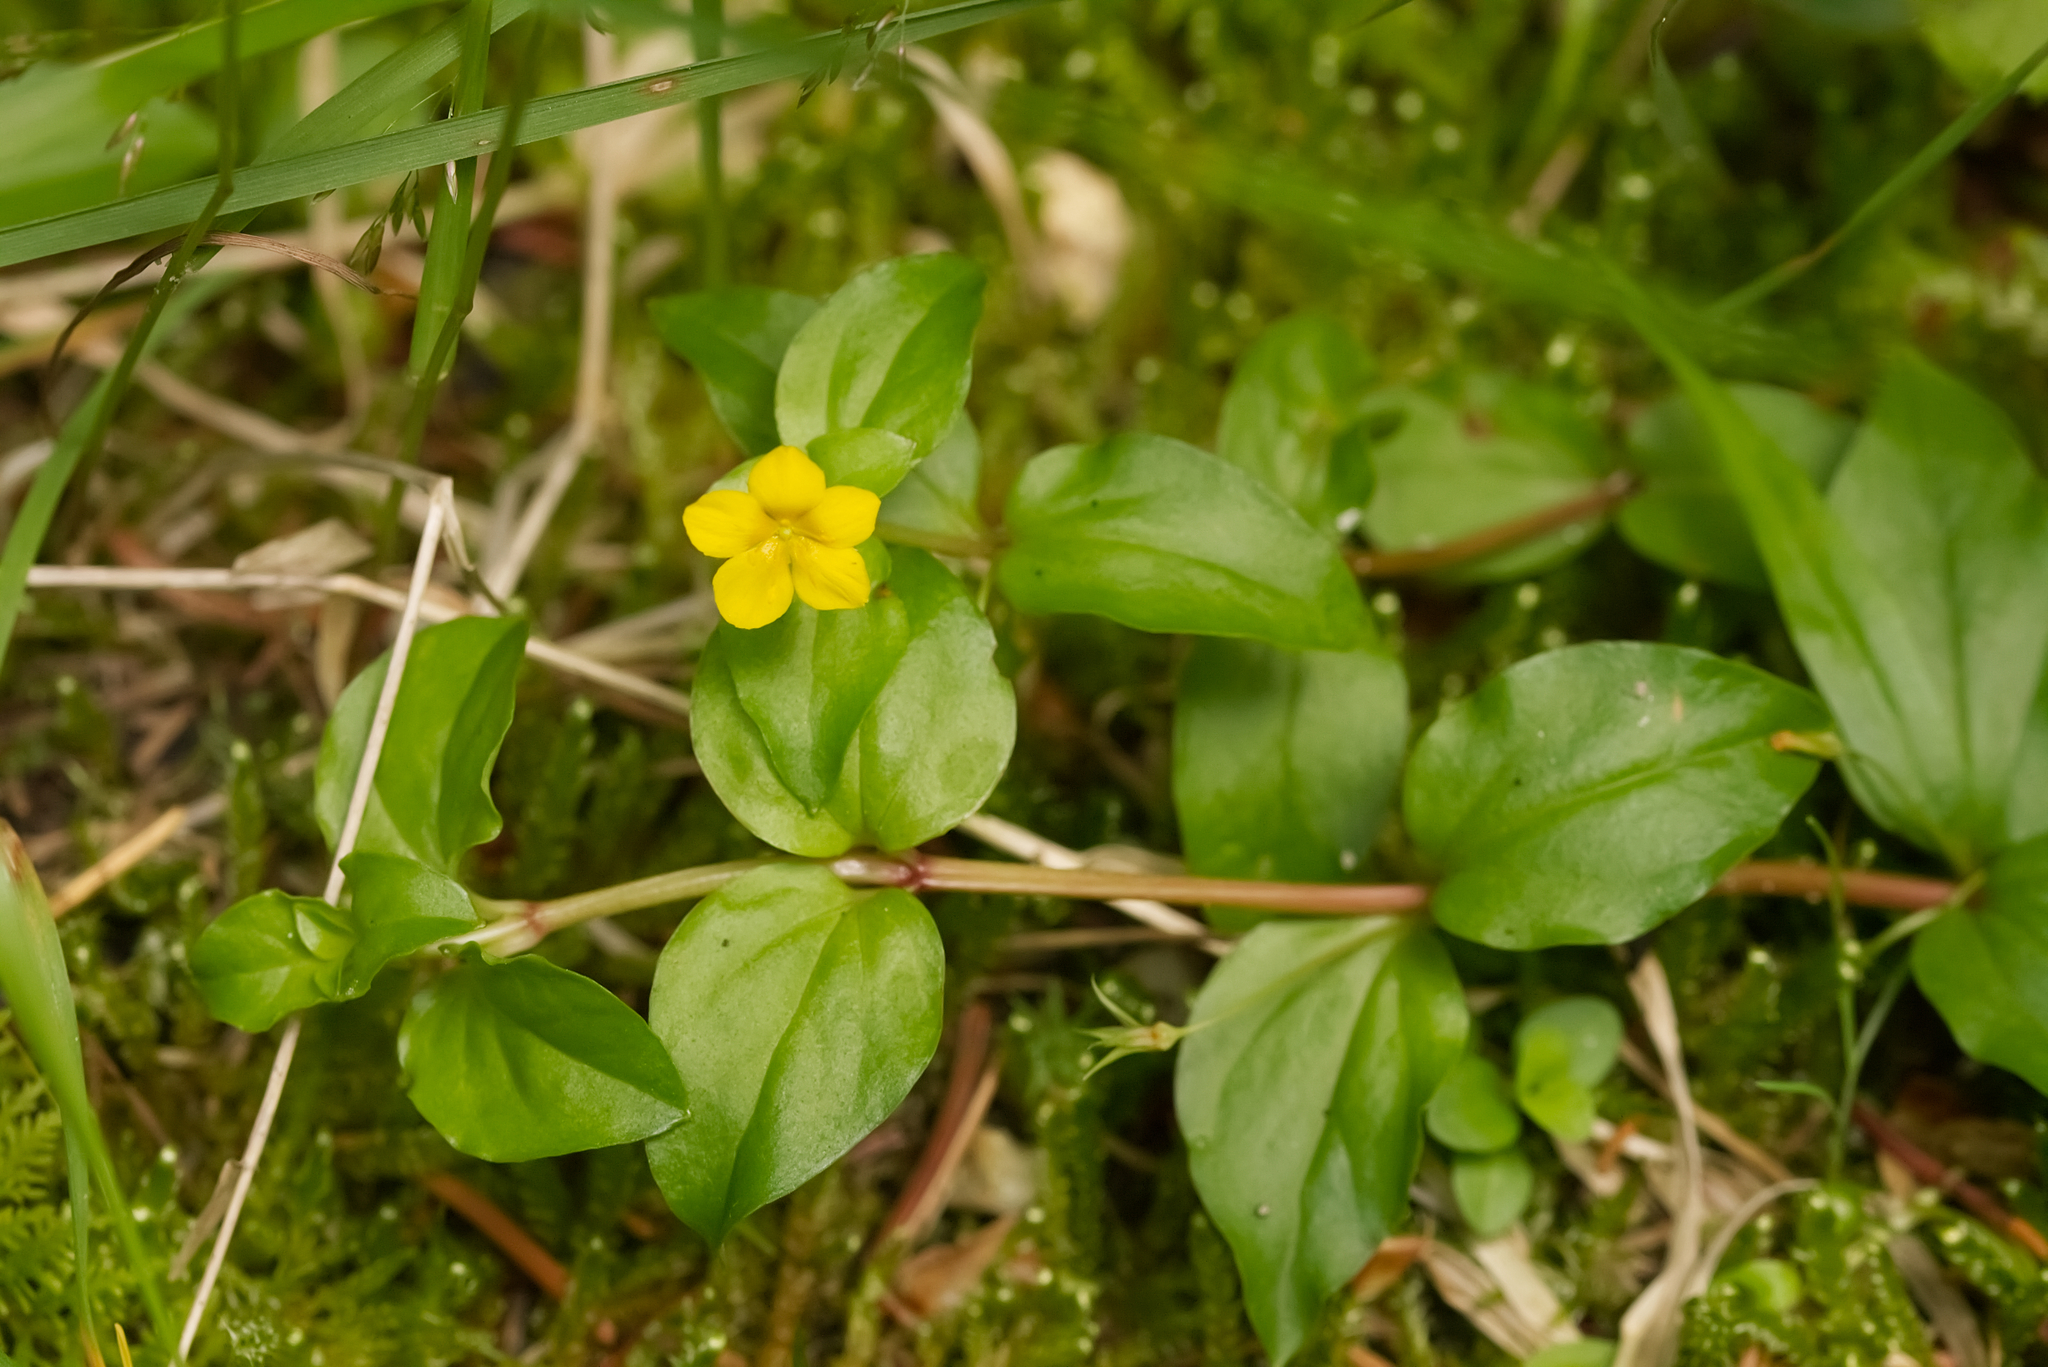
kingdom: Plantae
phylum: Tracheophyta
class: Magnoliopsida
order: Ericales
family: Primulaceae
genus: Lysimachia
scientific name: Lysimachia nemorum
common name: Yellow pimpernel
